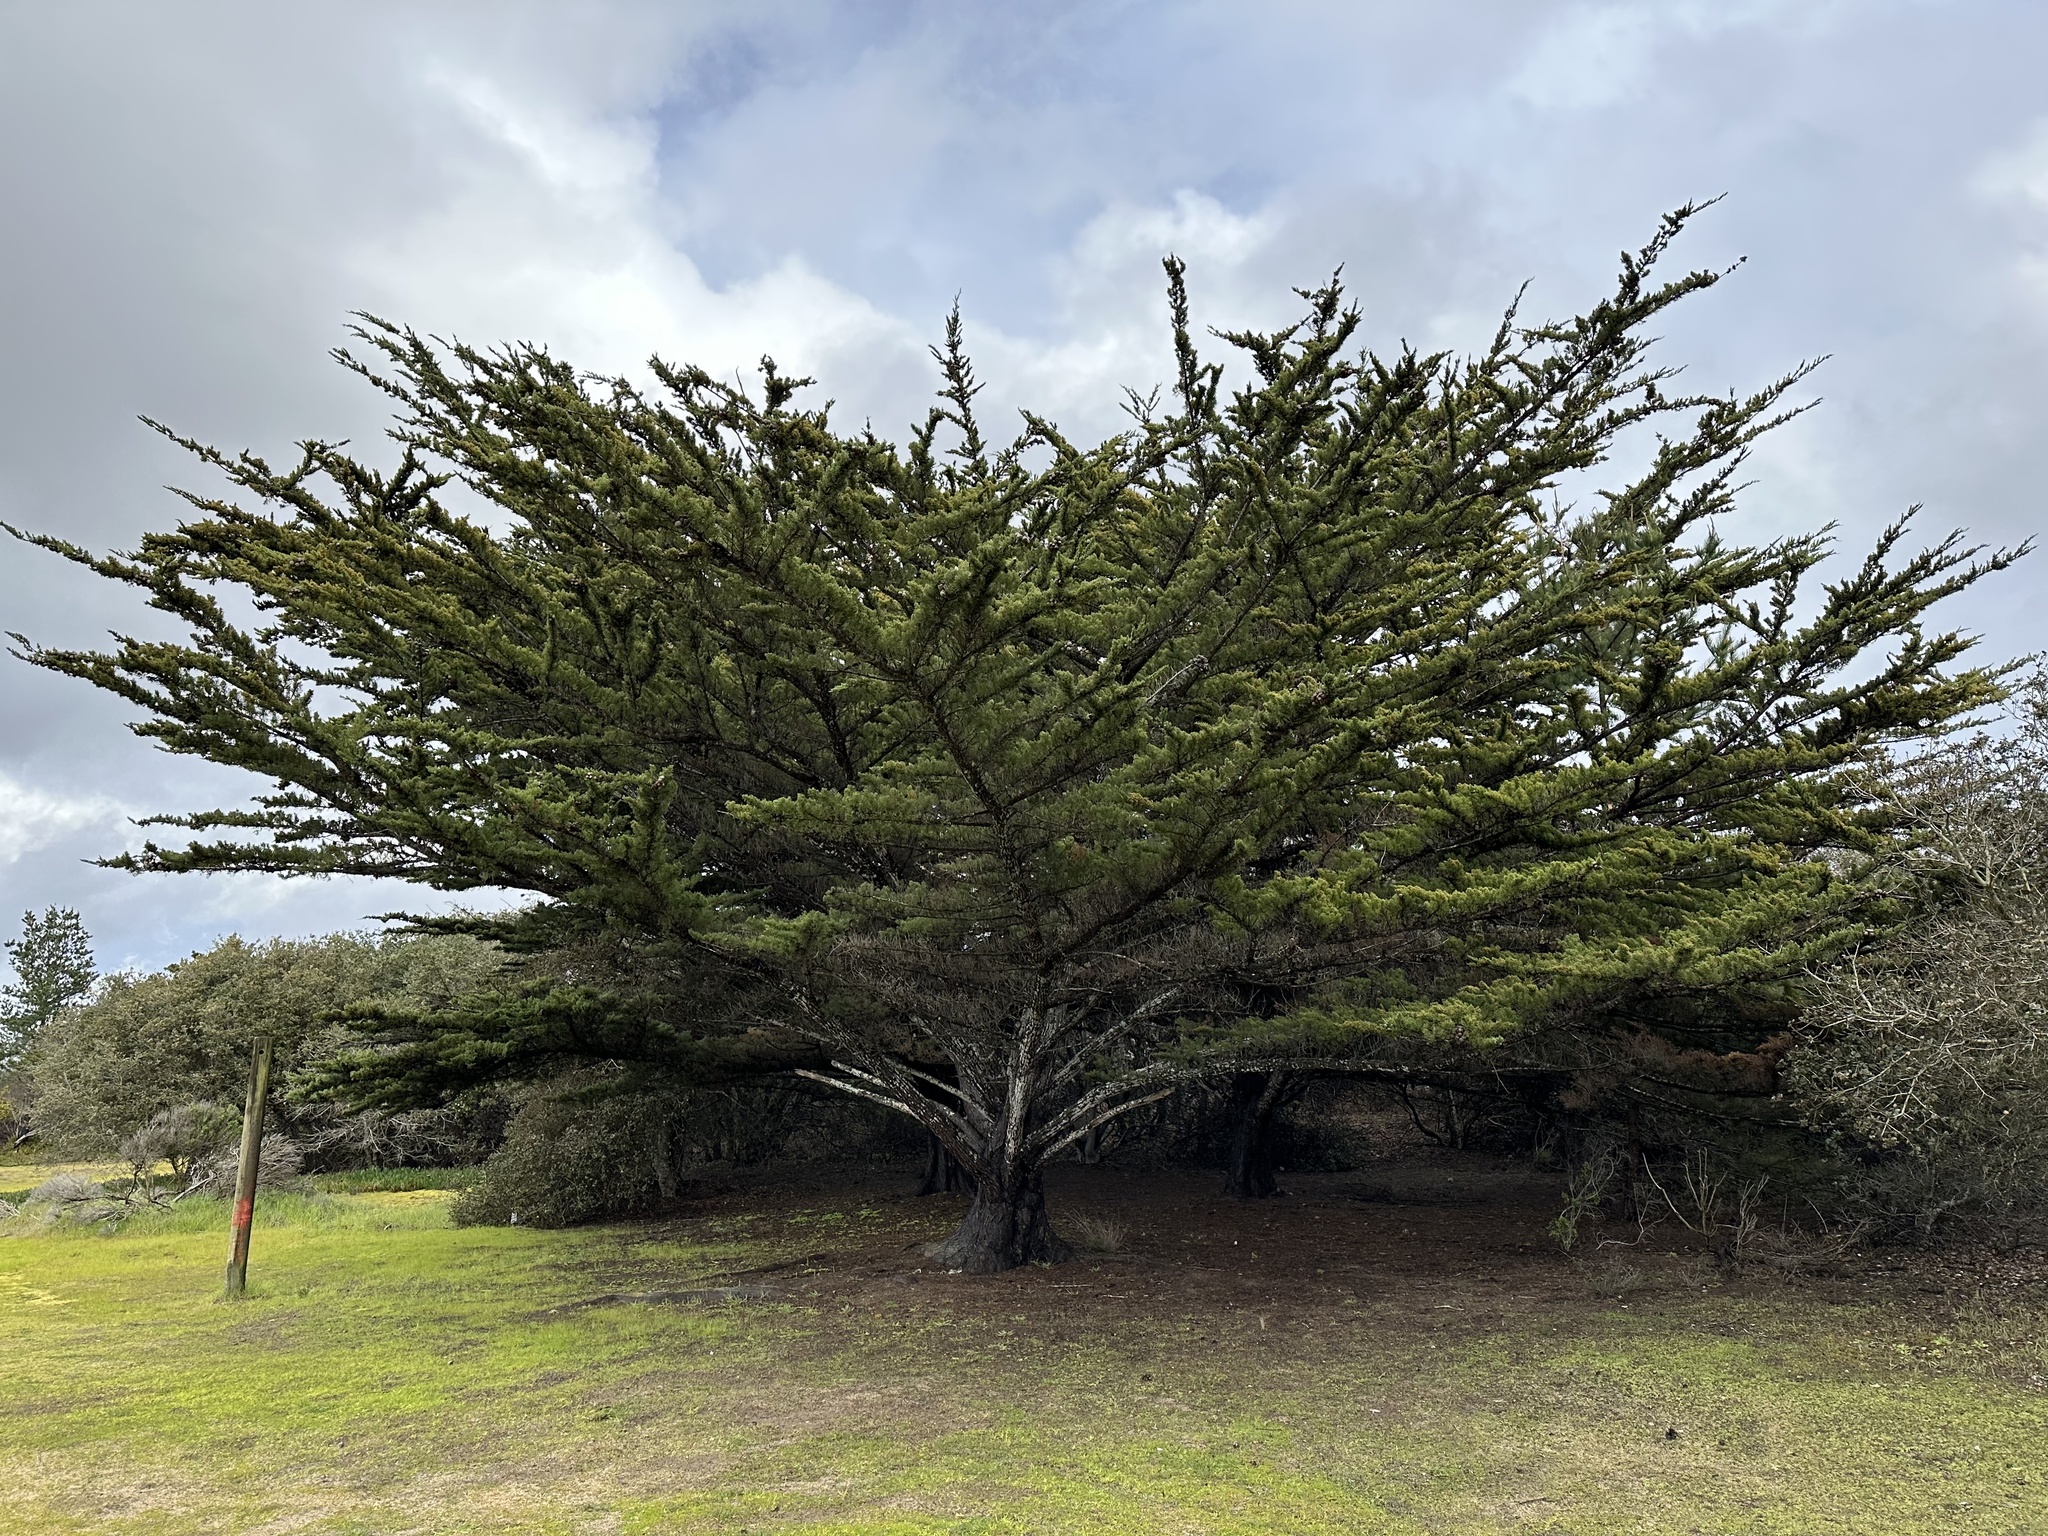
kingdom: Plantae
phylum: Tracheophyta
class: Pinopsida
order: Pinales
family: Cupressaceae
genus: Cupressus
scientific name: Cupressus macrocarpa
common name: Monterey cypress
